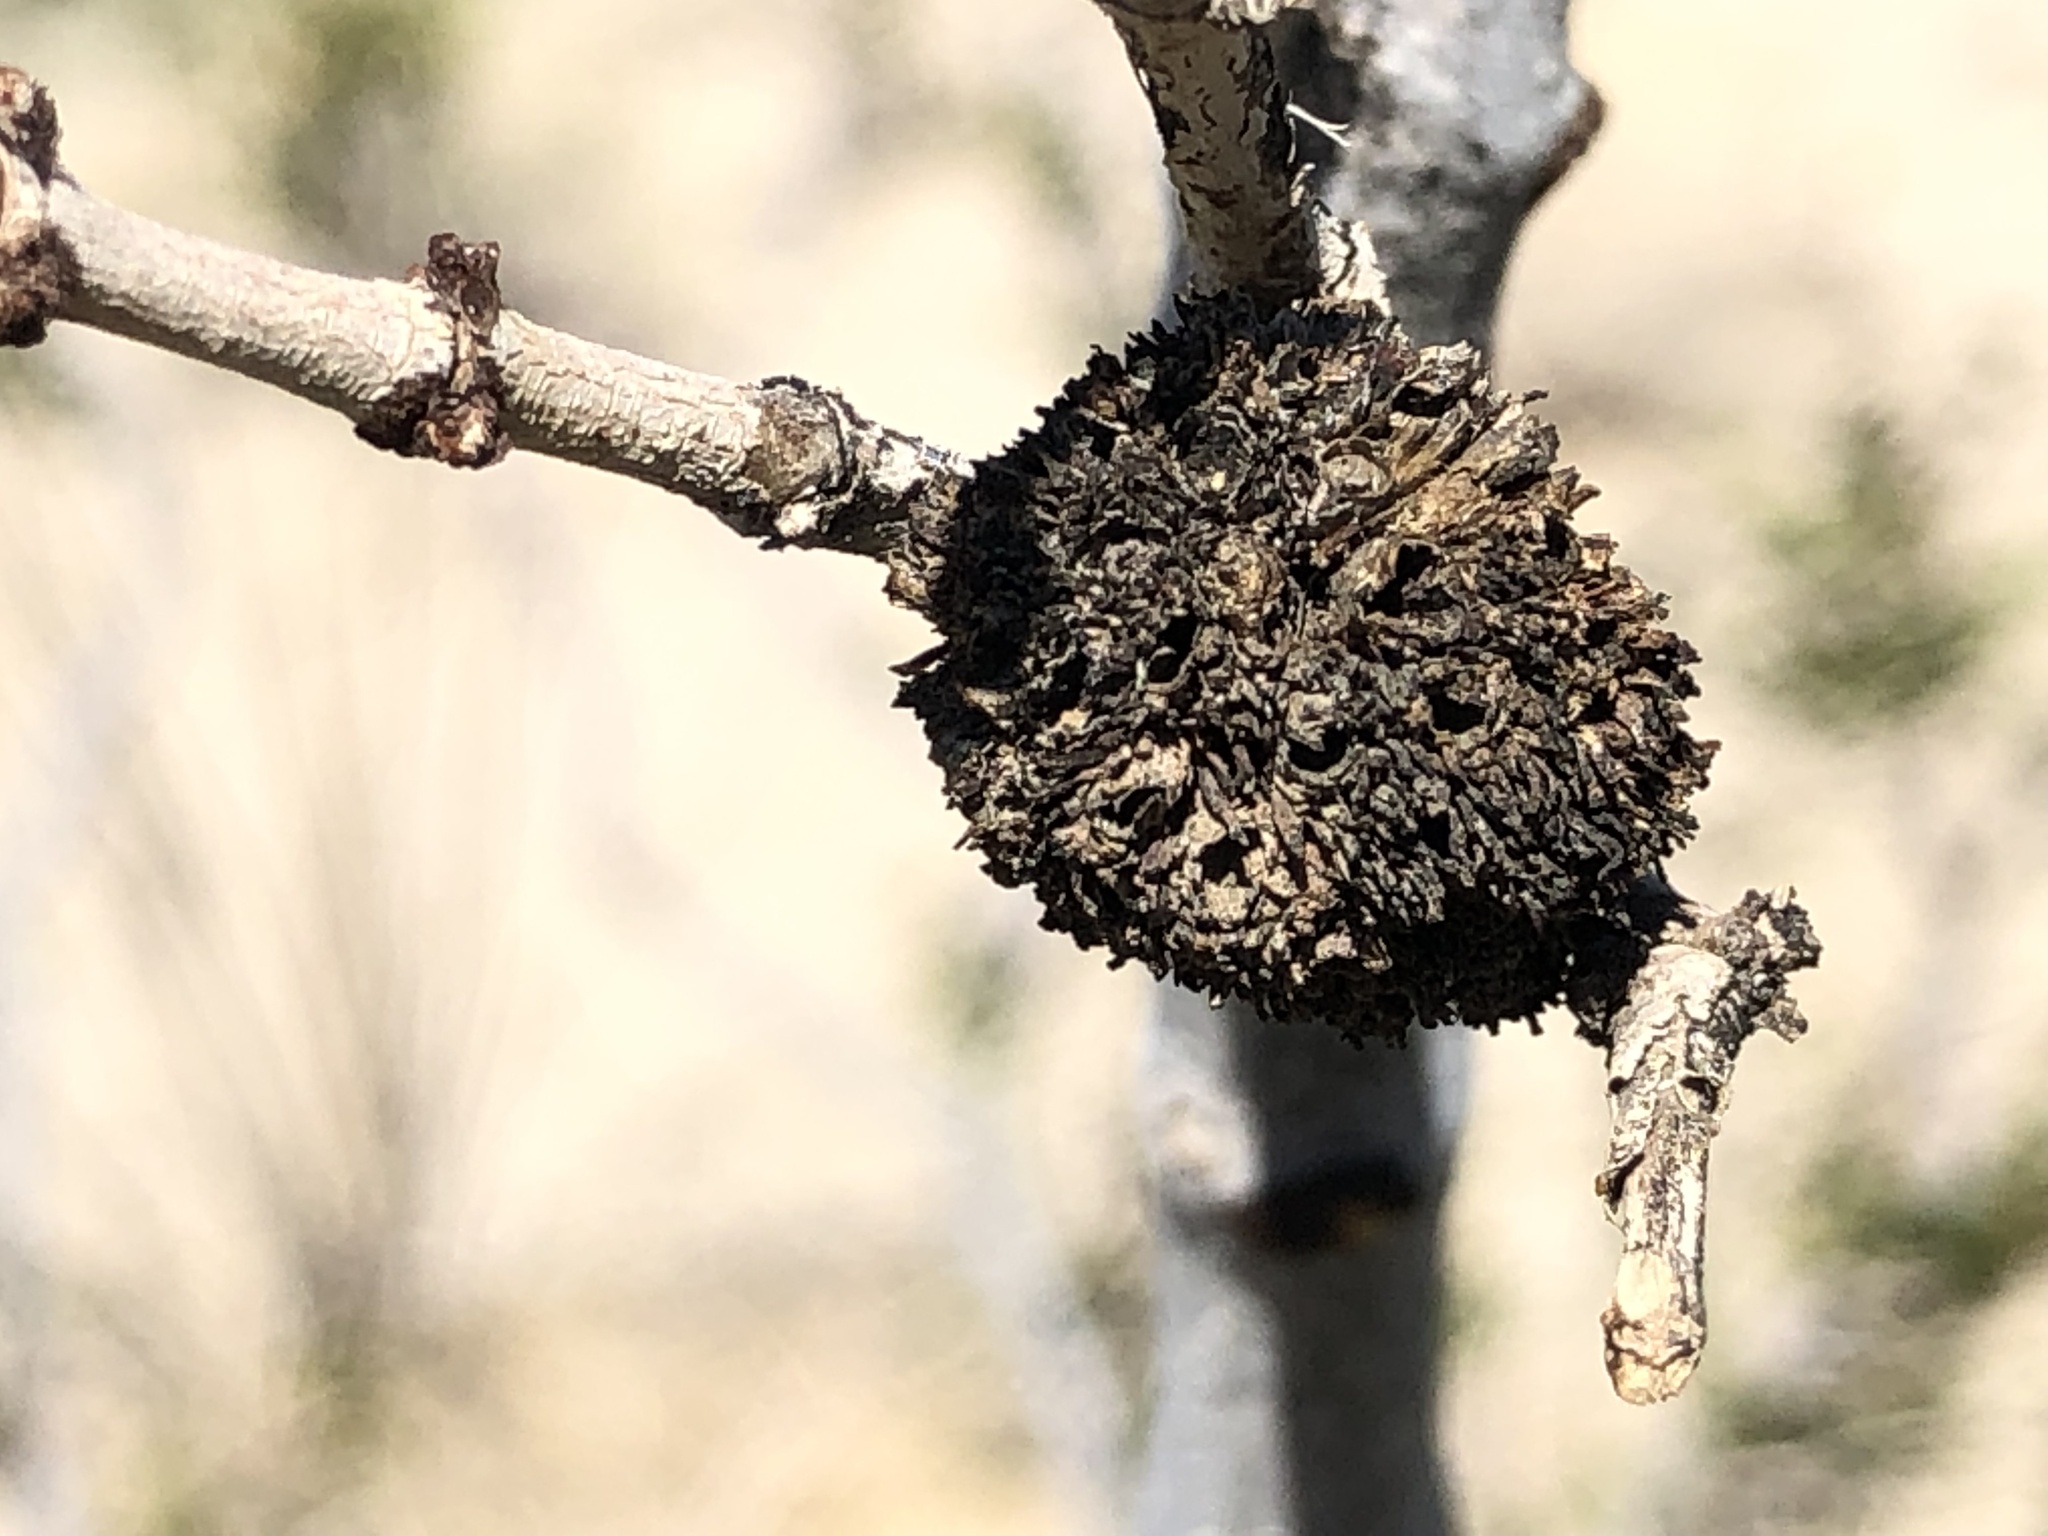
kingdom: Animalia
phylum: Arthropoda
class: Insecta
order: Diptera
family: Cecidomyiidae
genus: Asphondylia
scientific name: Asphondylia auripila
